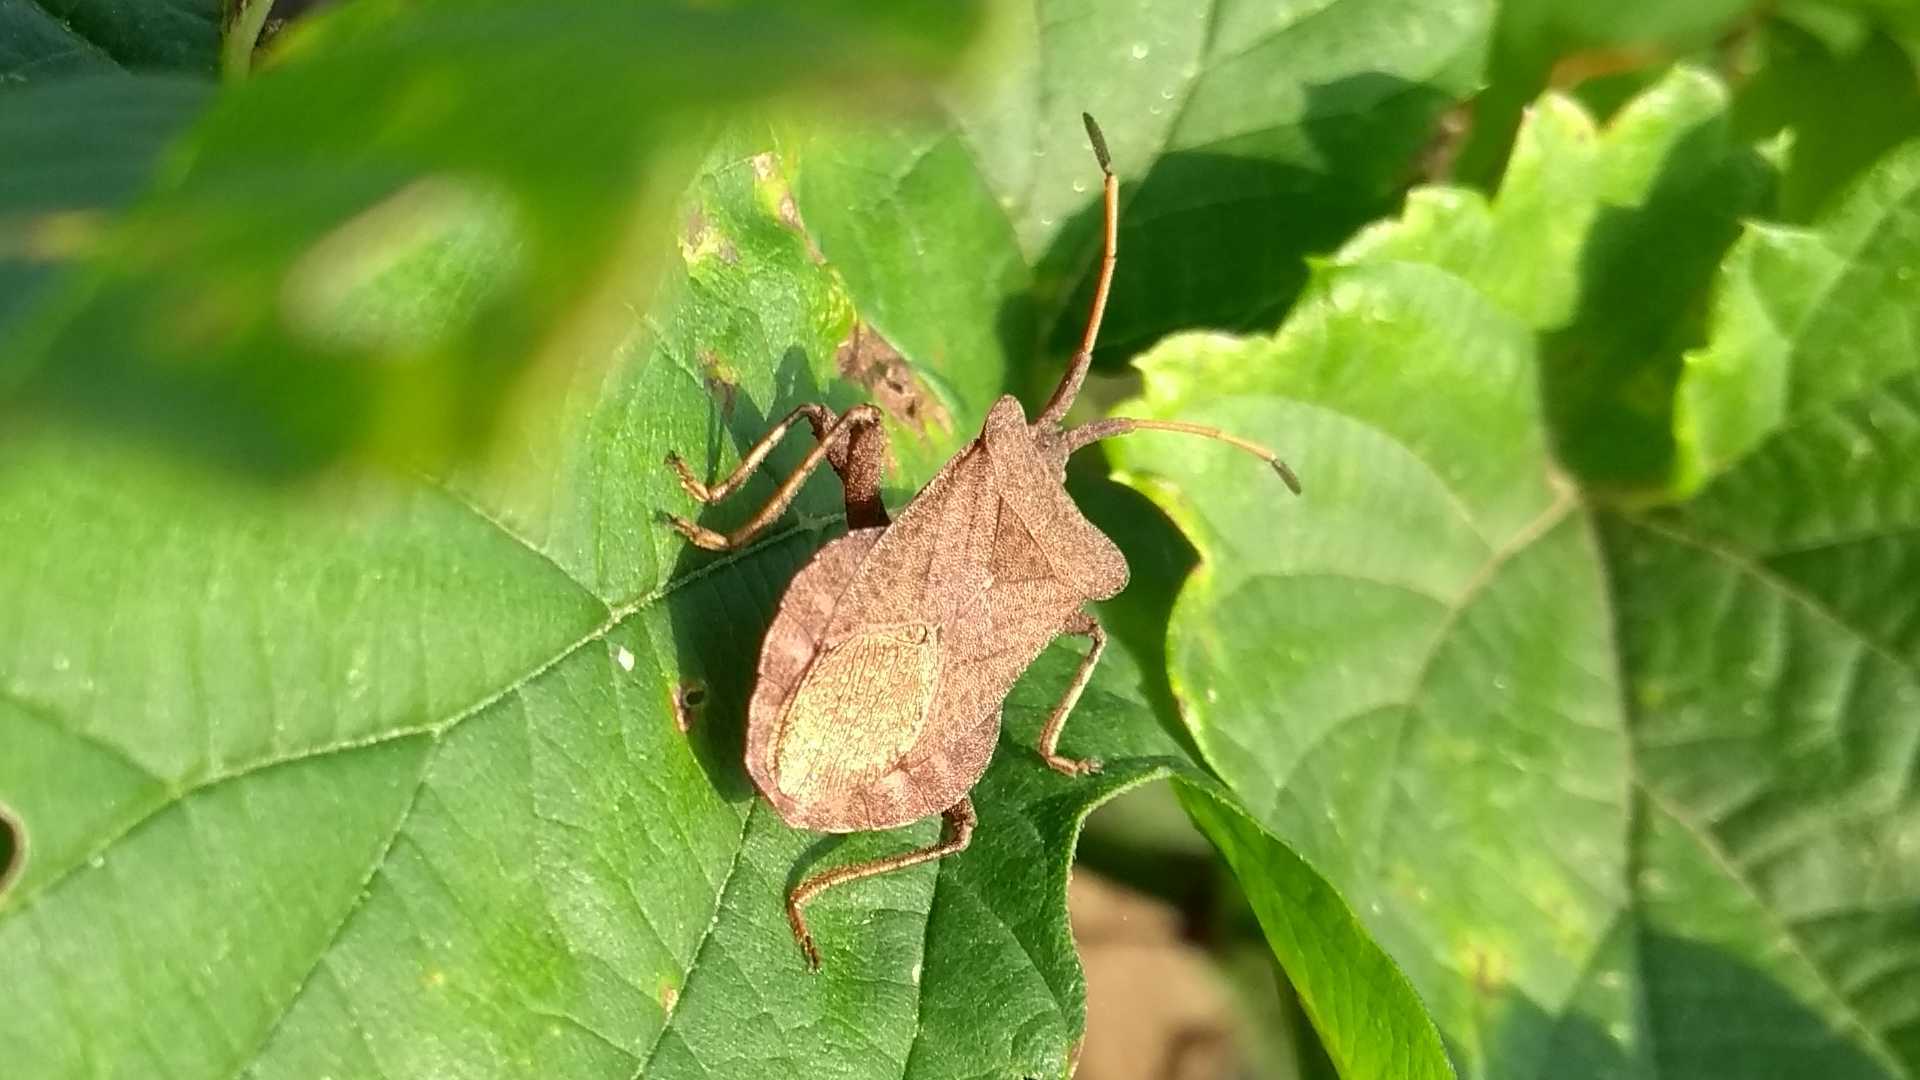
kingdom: Animalia
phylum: Arthropoda
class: Insecta
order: Hemiptera
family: Coreidae
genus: Coreus
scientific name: Coreus marginatus
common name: Dock bug
